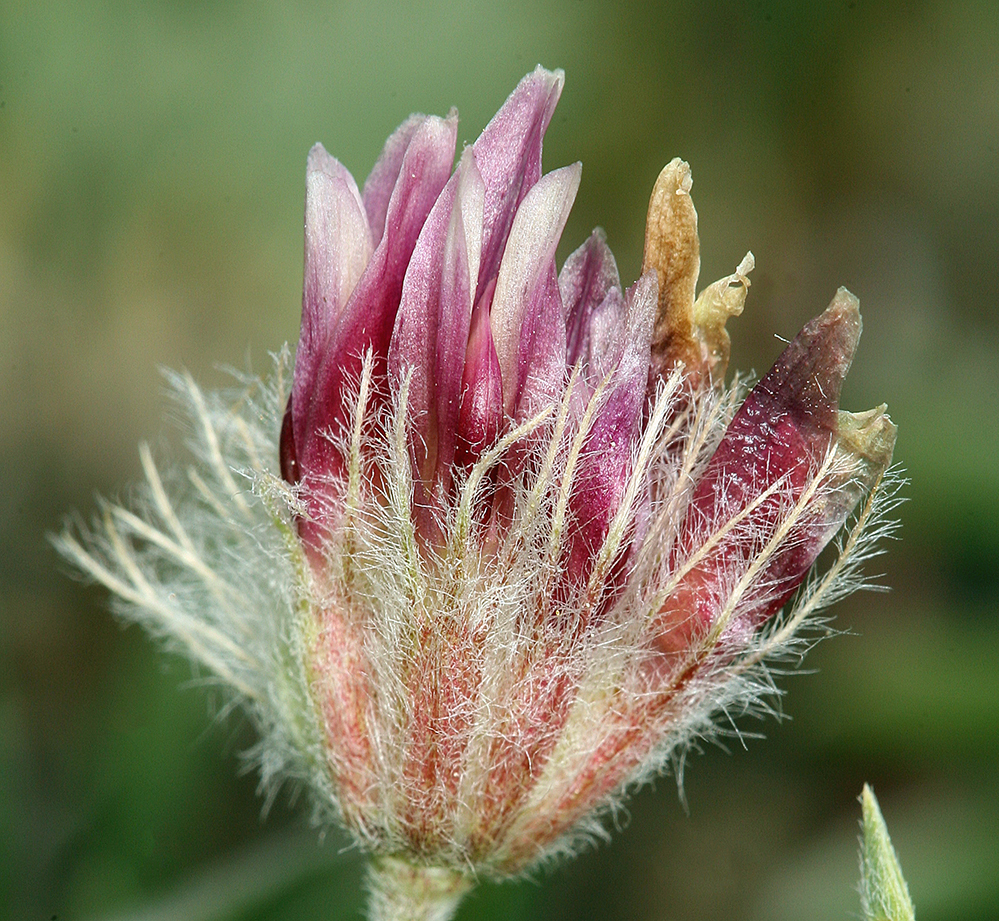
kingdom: Plantae
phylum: Tracheophyta
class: Magnoliopsida
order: Fabales
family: Fabaceae
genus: Trifolium
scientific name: Trifolium andersonii
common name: Anderson's clover
